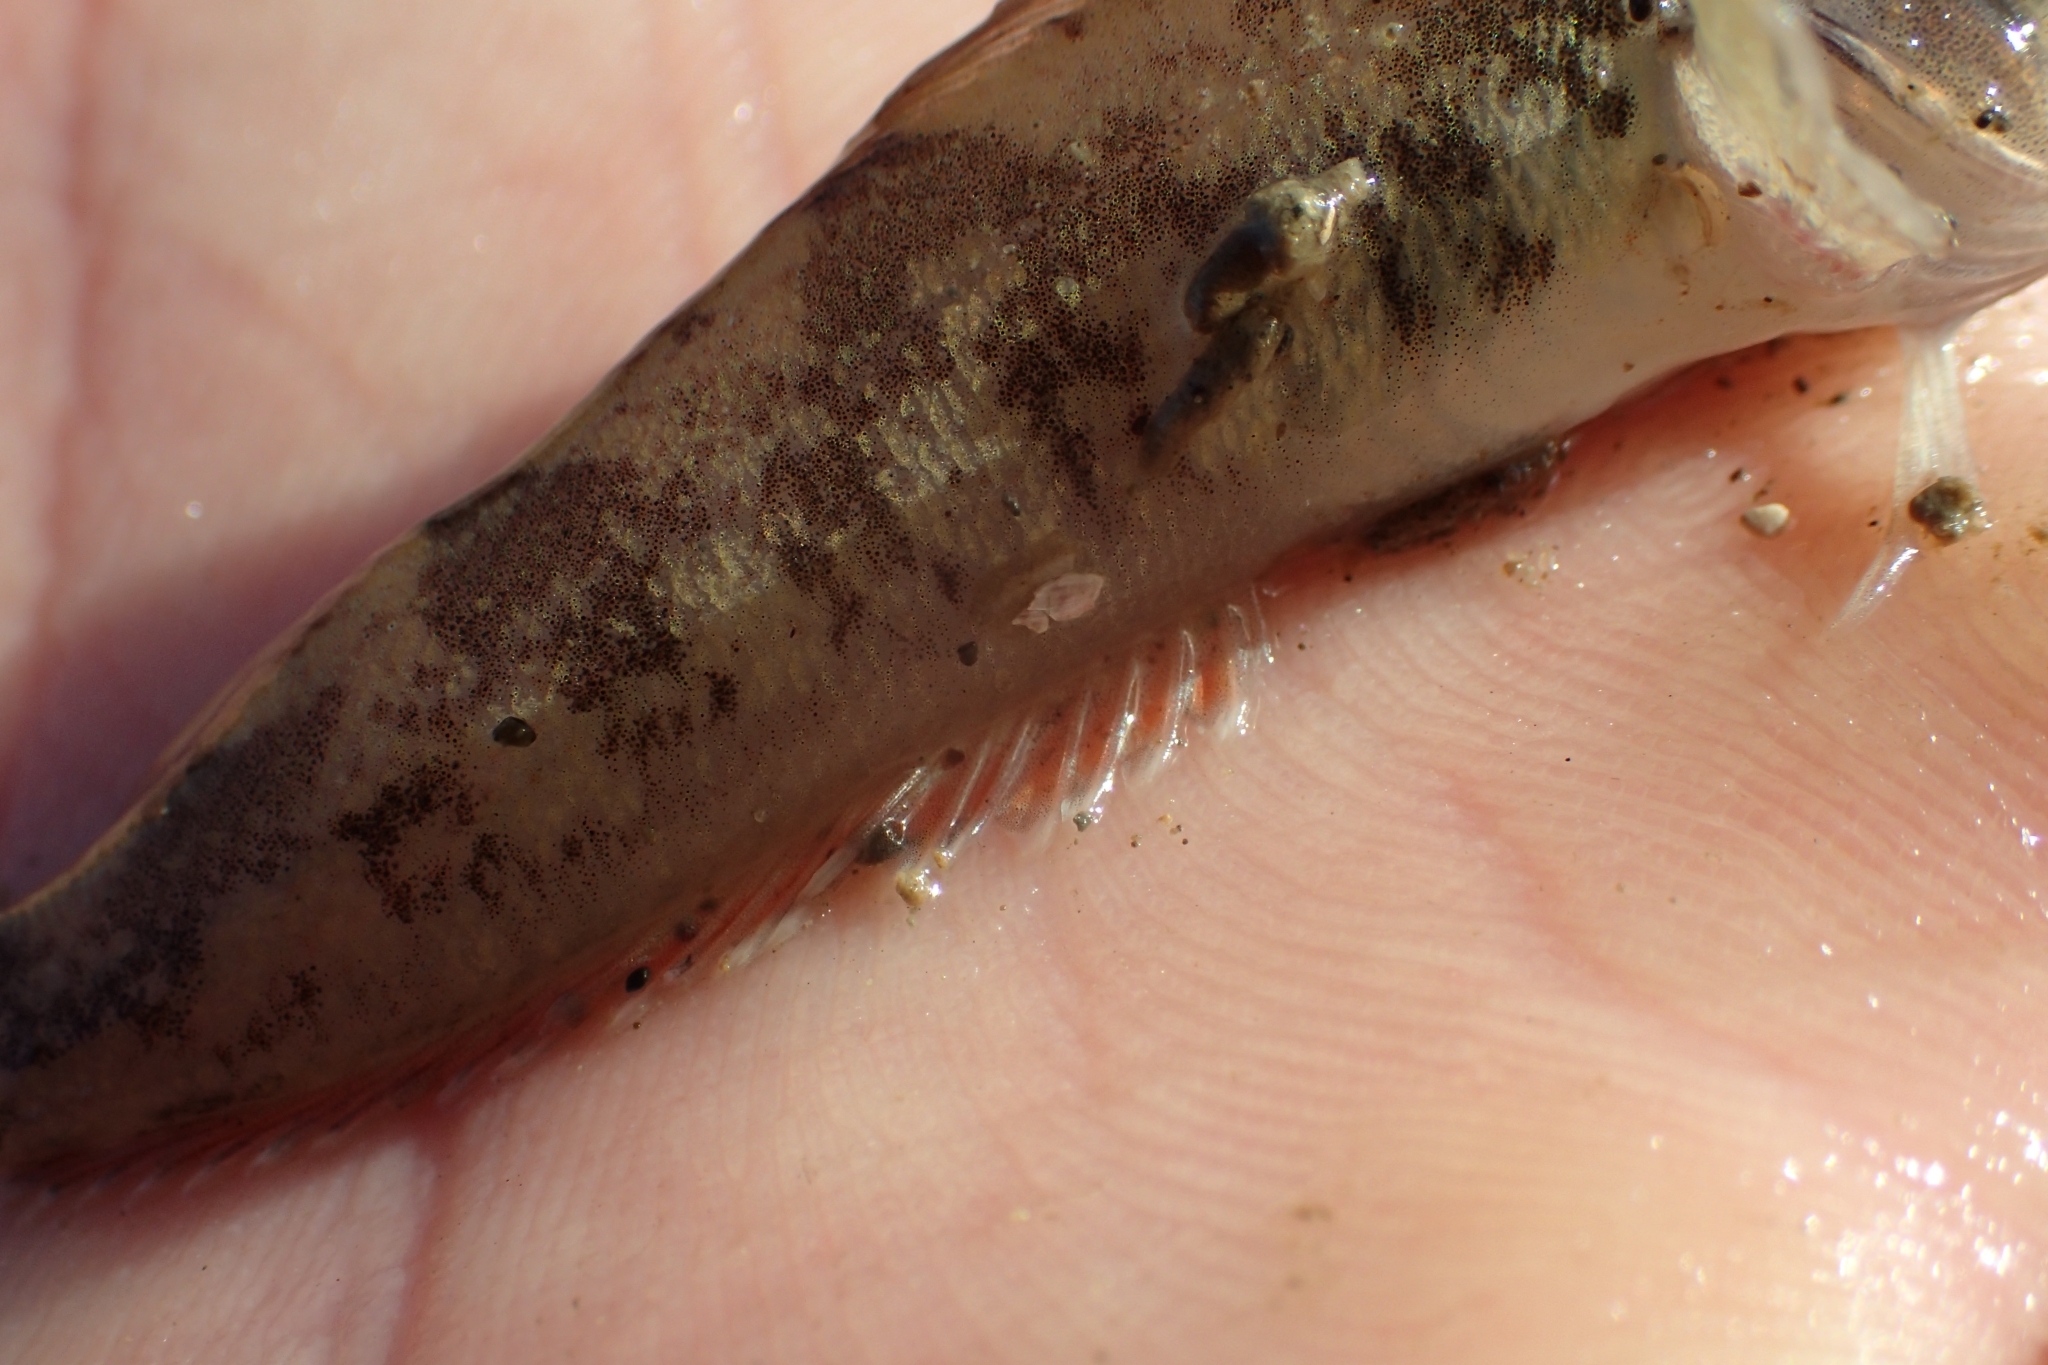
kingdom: Animalia
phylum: Chordata
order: Perciformes
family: Tripterygiidae
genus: Forsterygion
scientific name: Forsterygion gymnotum
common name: Multifid-tentacled robust triplefin
